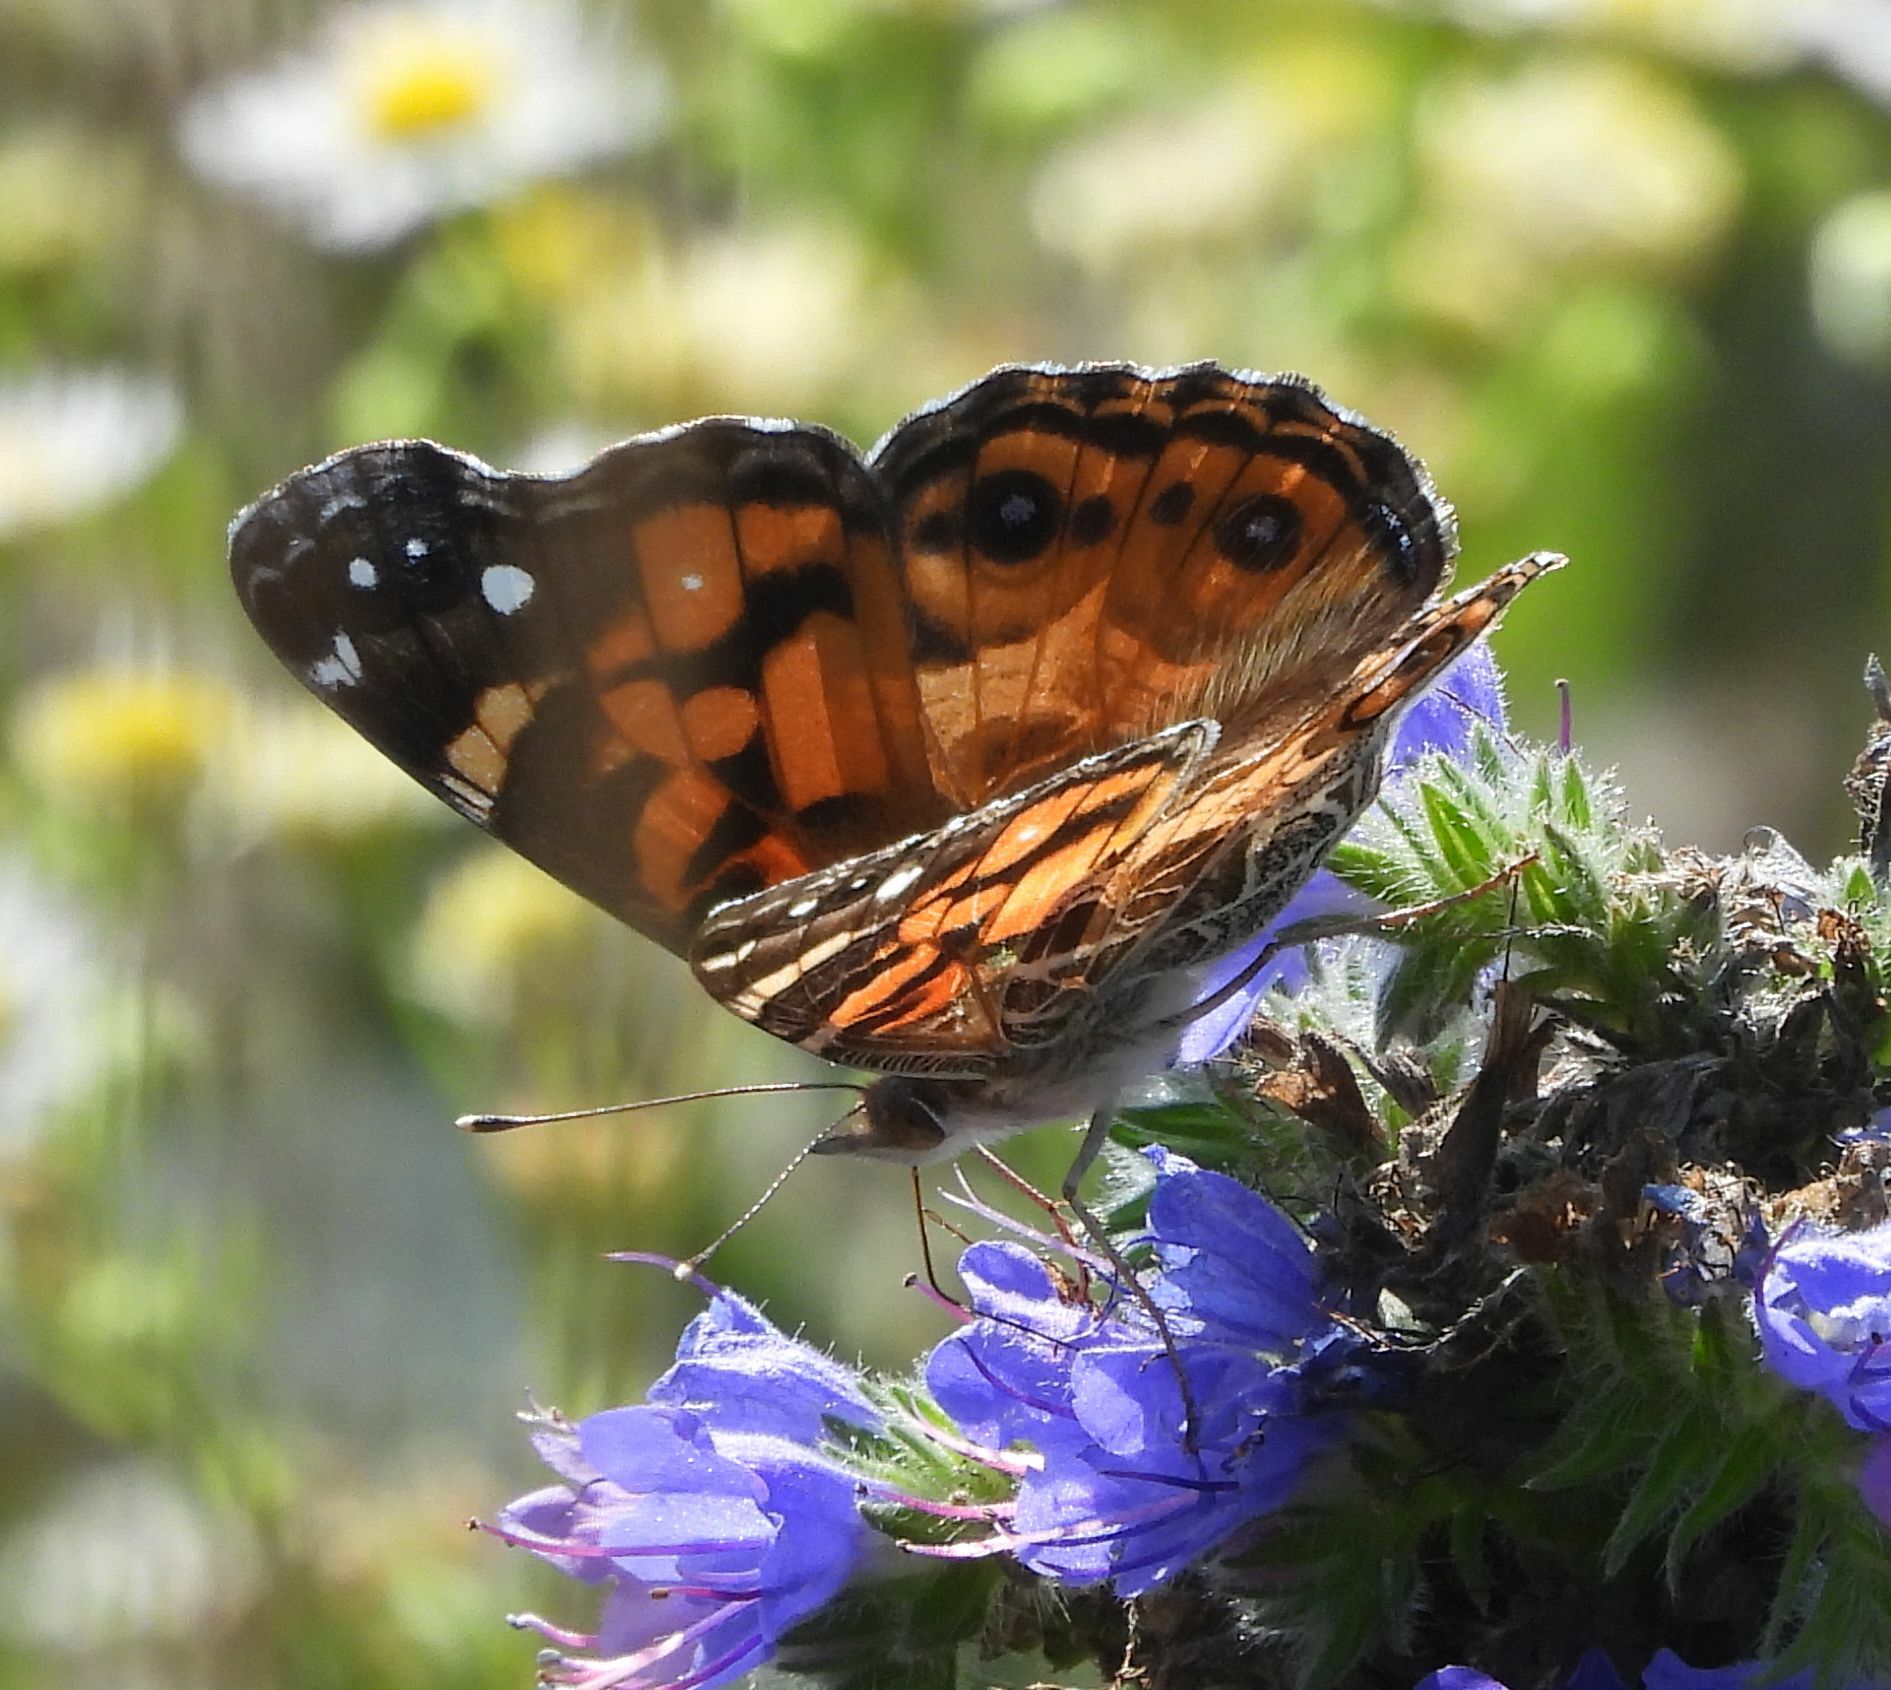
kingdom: Animalia
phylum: Arthropoda
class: Insecta
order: Lepidoptera
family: Nymphalidae
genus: Vanessa
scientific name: Vanessa virginiensis
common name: American lady
